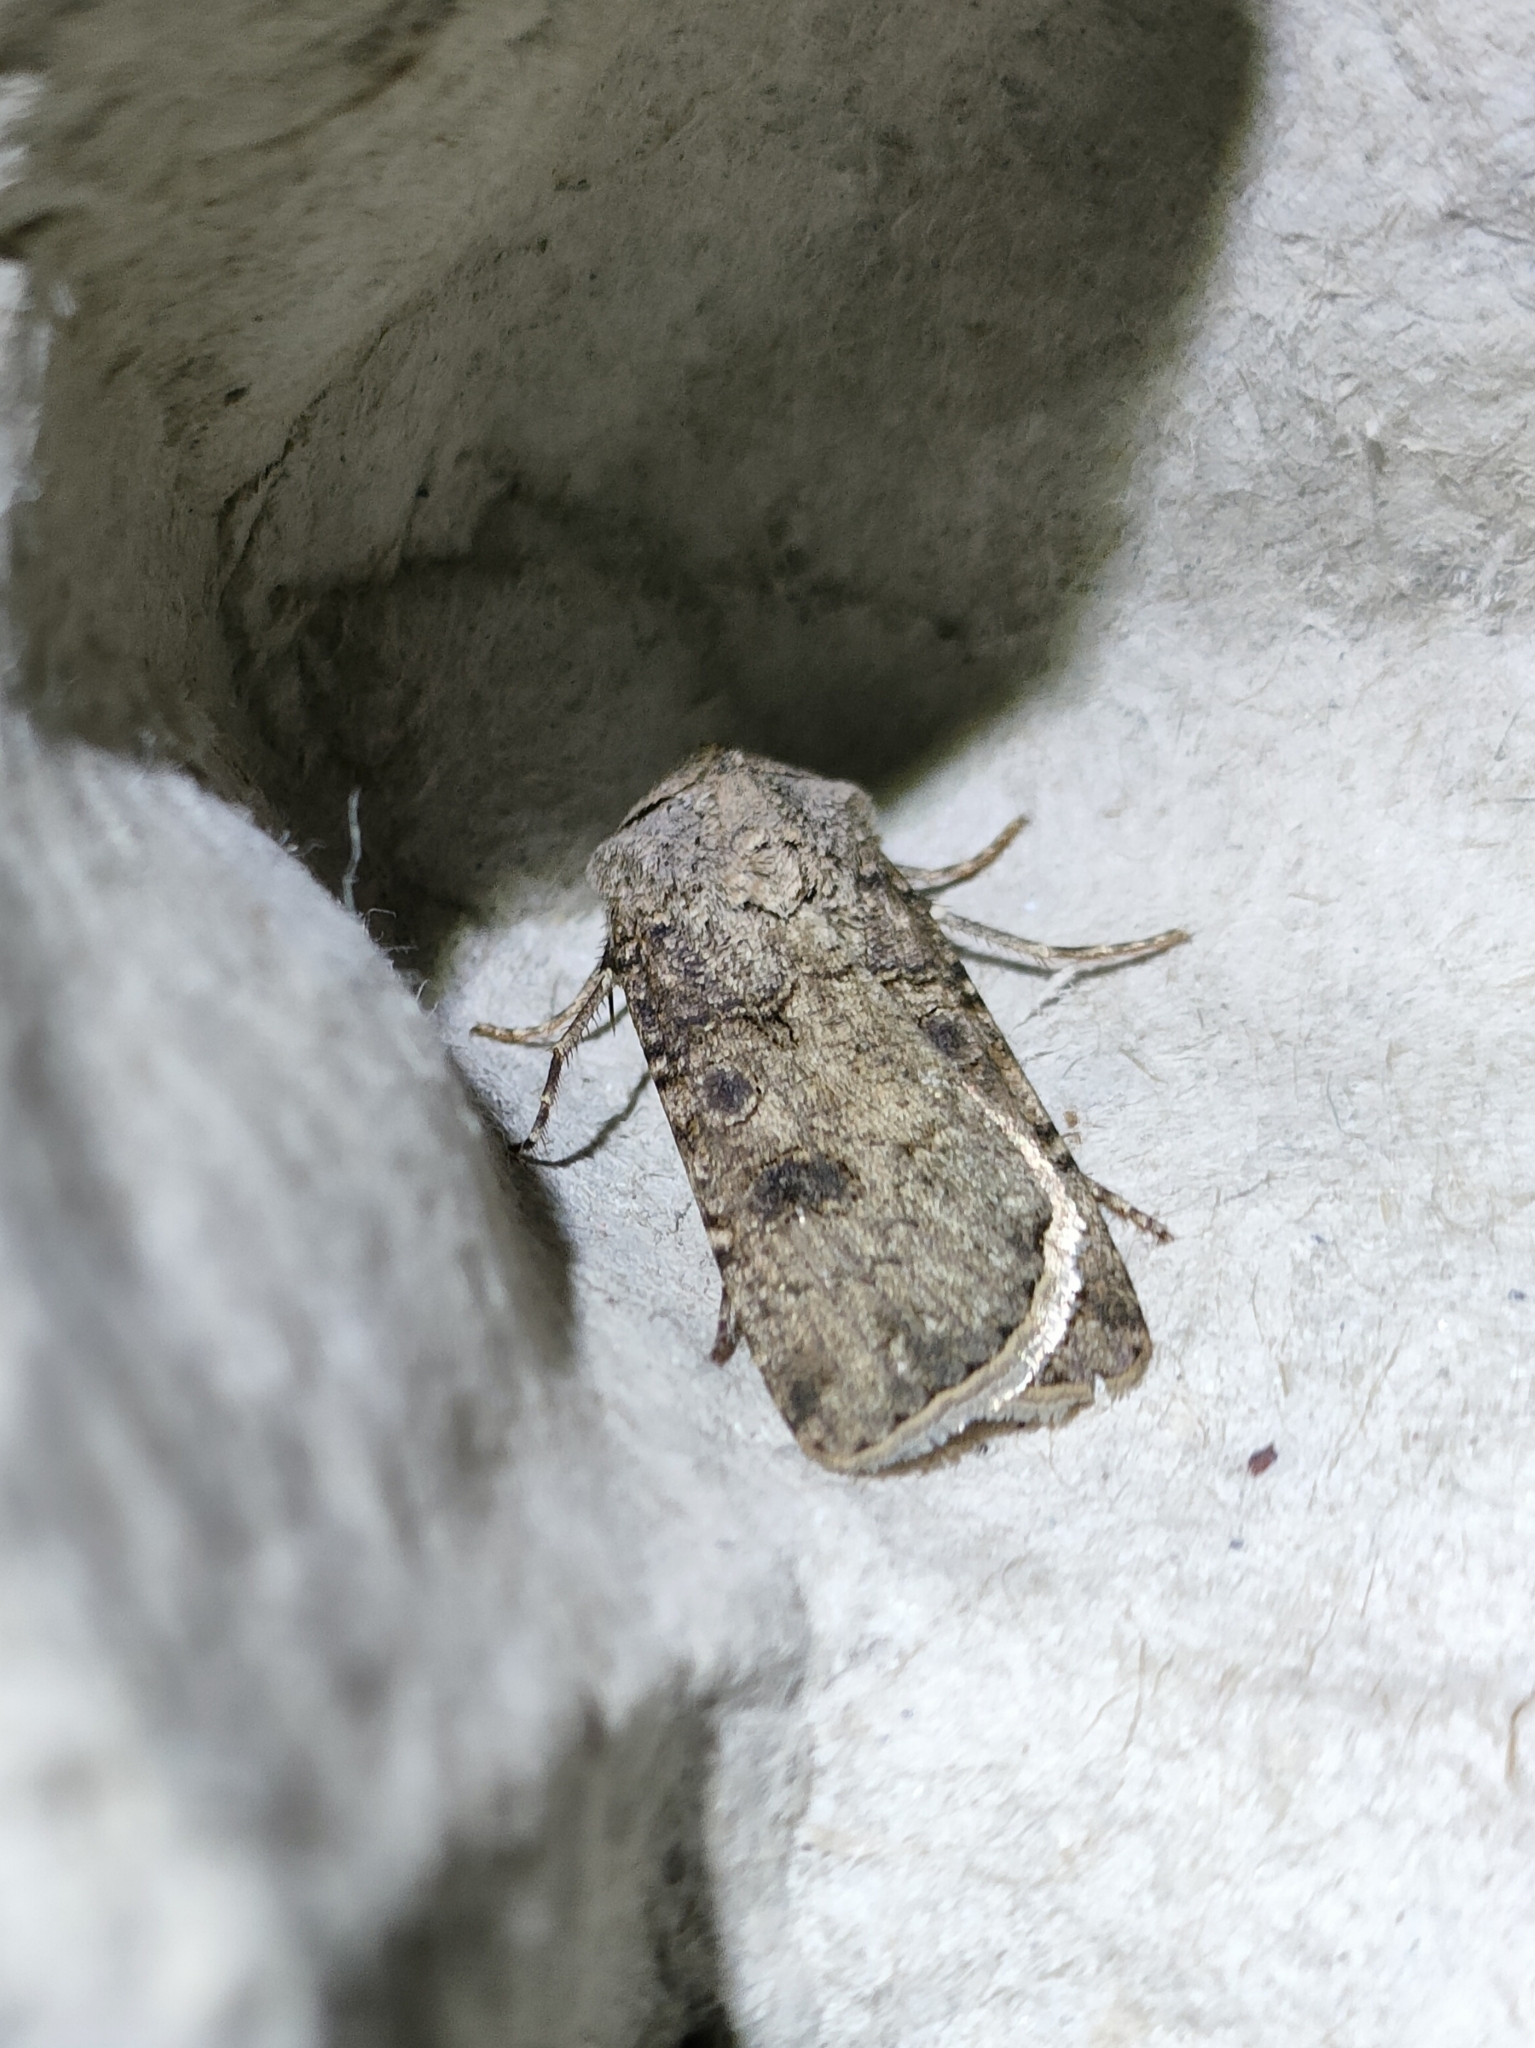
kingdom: Animalia
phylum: Arthropoda
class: Insecta
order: Lepidoptera
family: Noctuidae
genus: Agrotis
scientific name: Agrotis segetum
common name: Turnip moth
